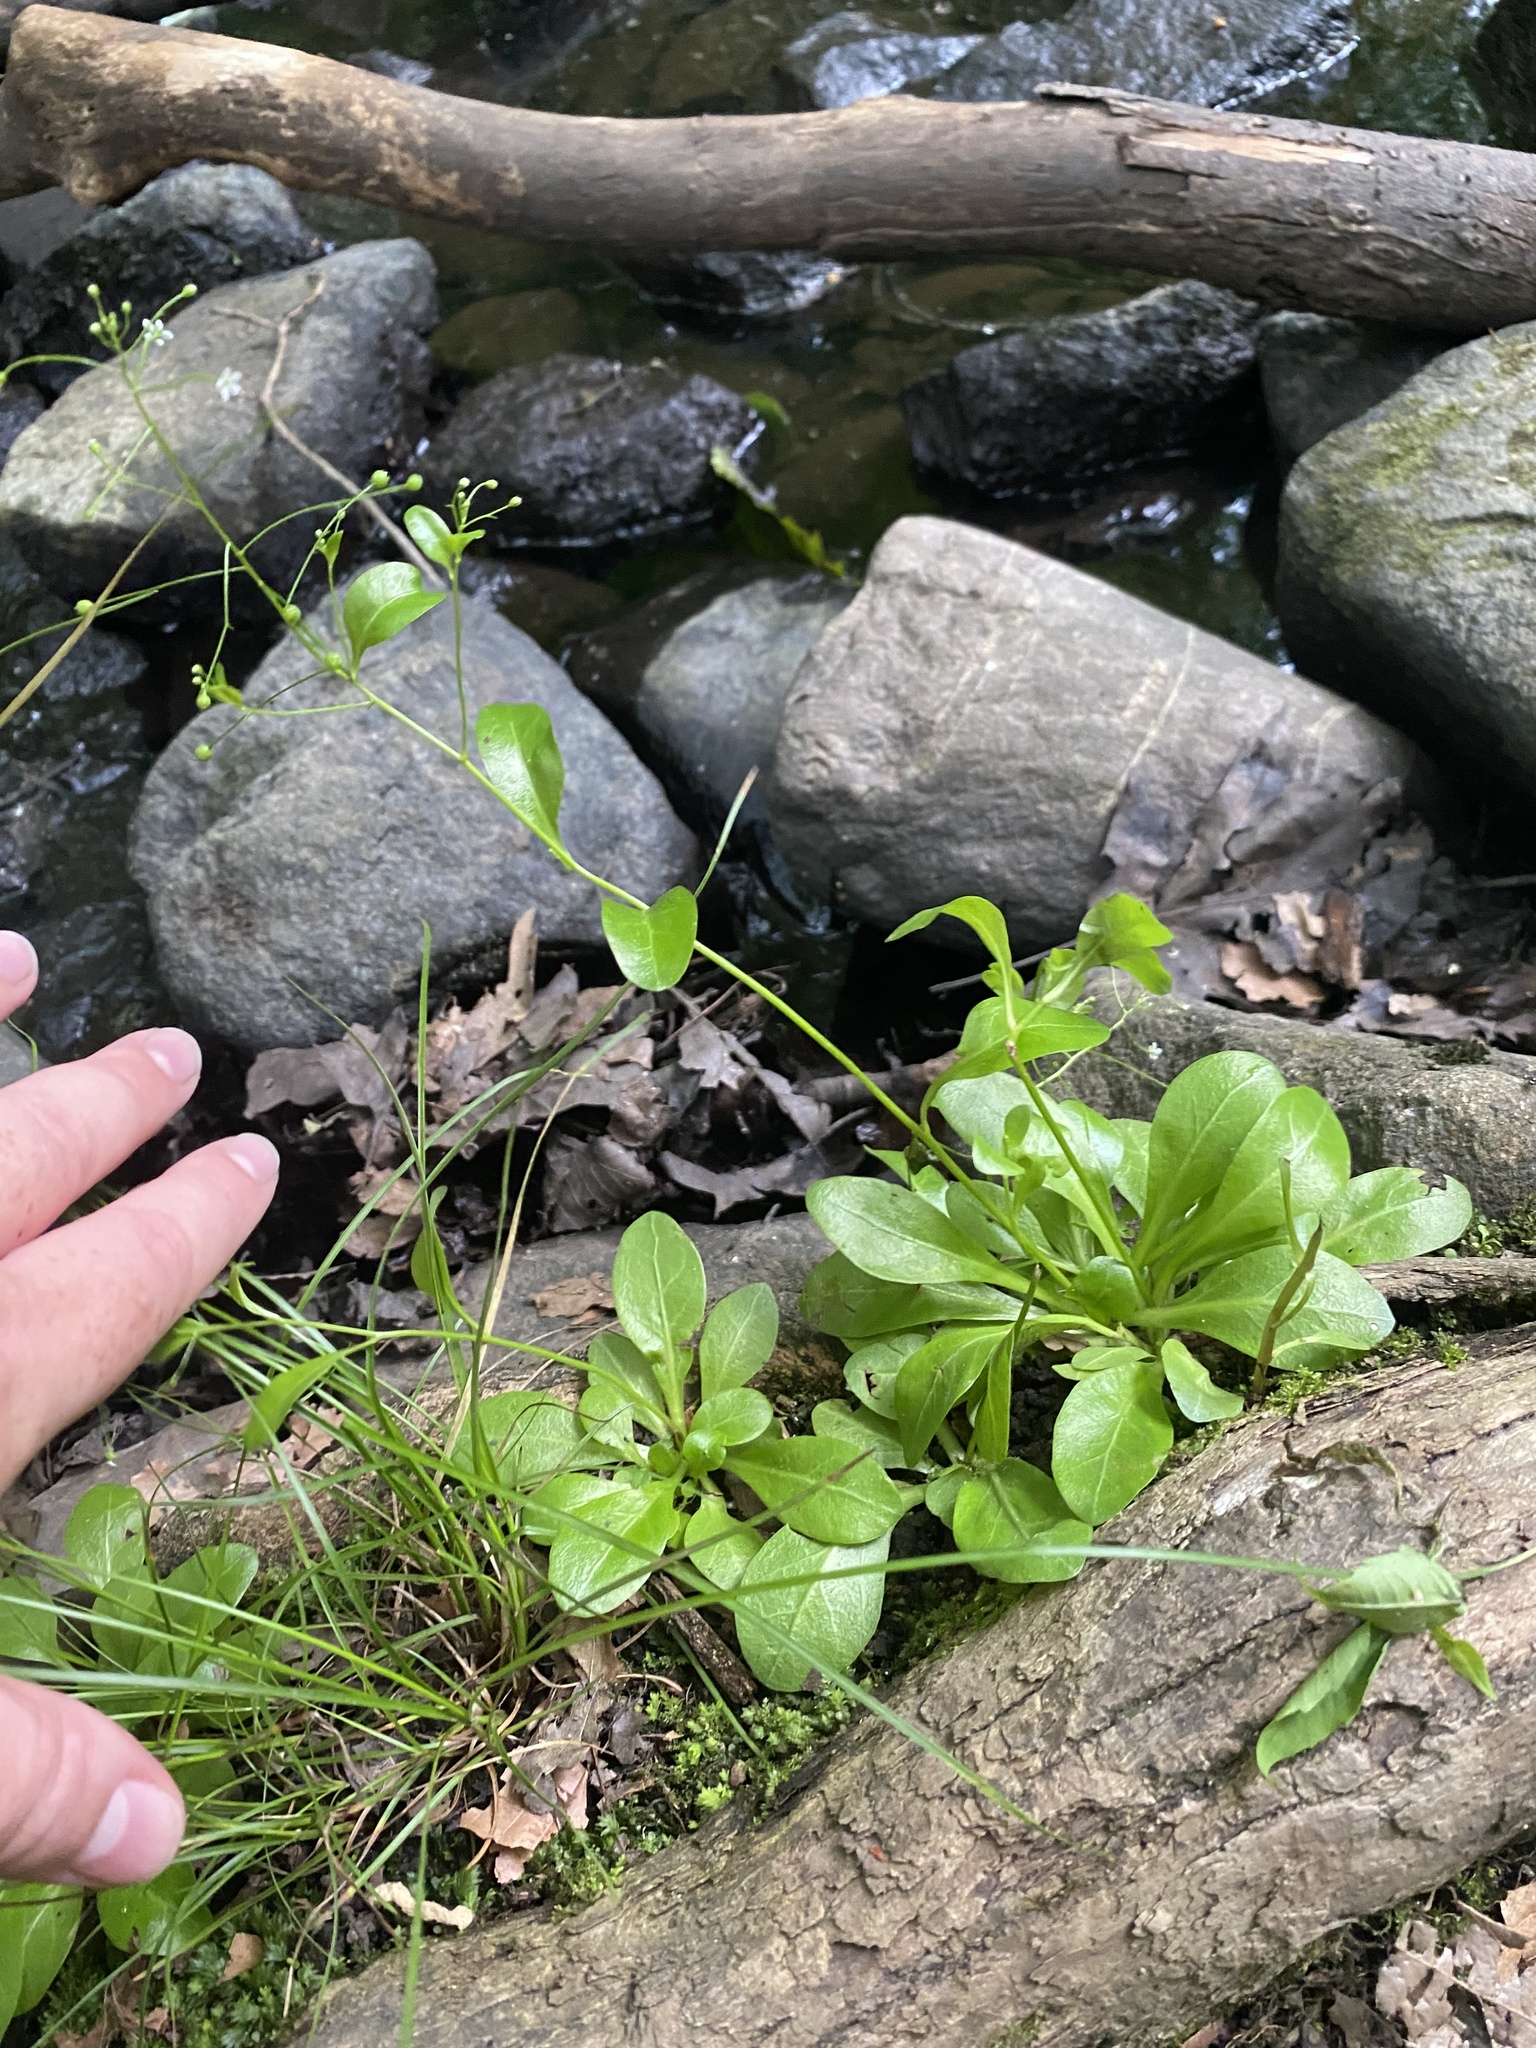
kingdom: Plantae
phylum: Tracheophyta
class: Magnoliopsida
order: Ericales
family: Primulaceae
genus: Samolus
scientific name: Samolus parviflorus
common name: False water pimpernel
